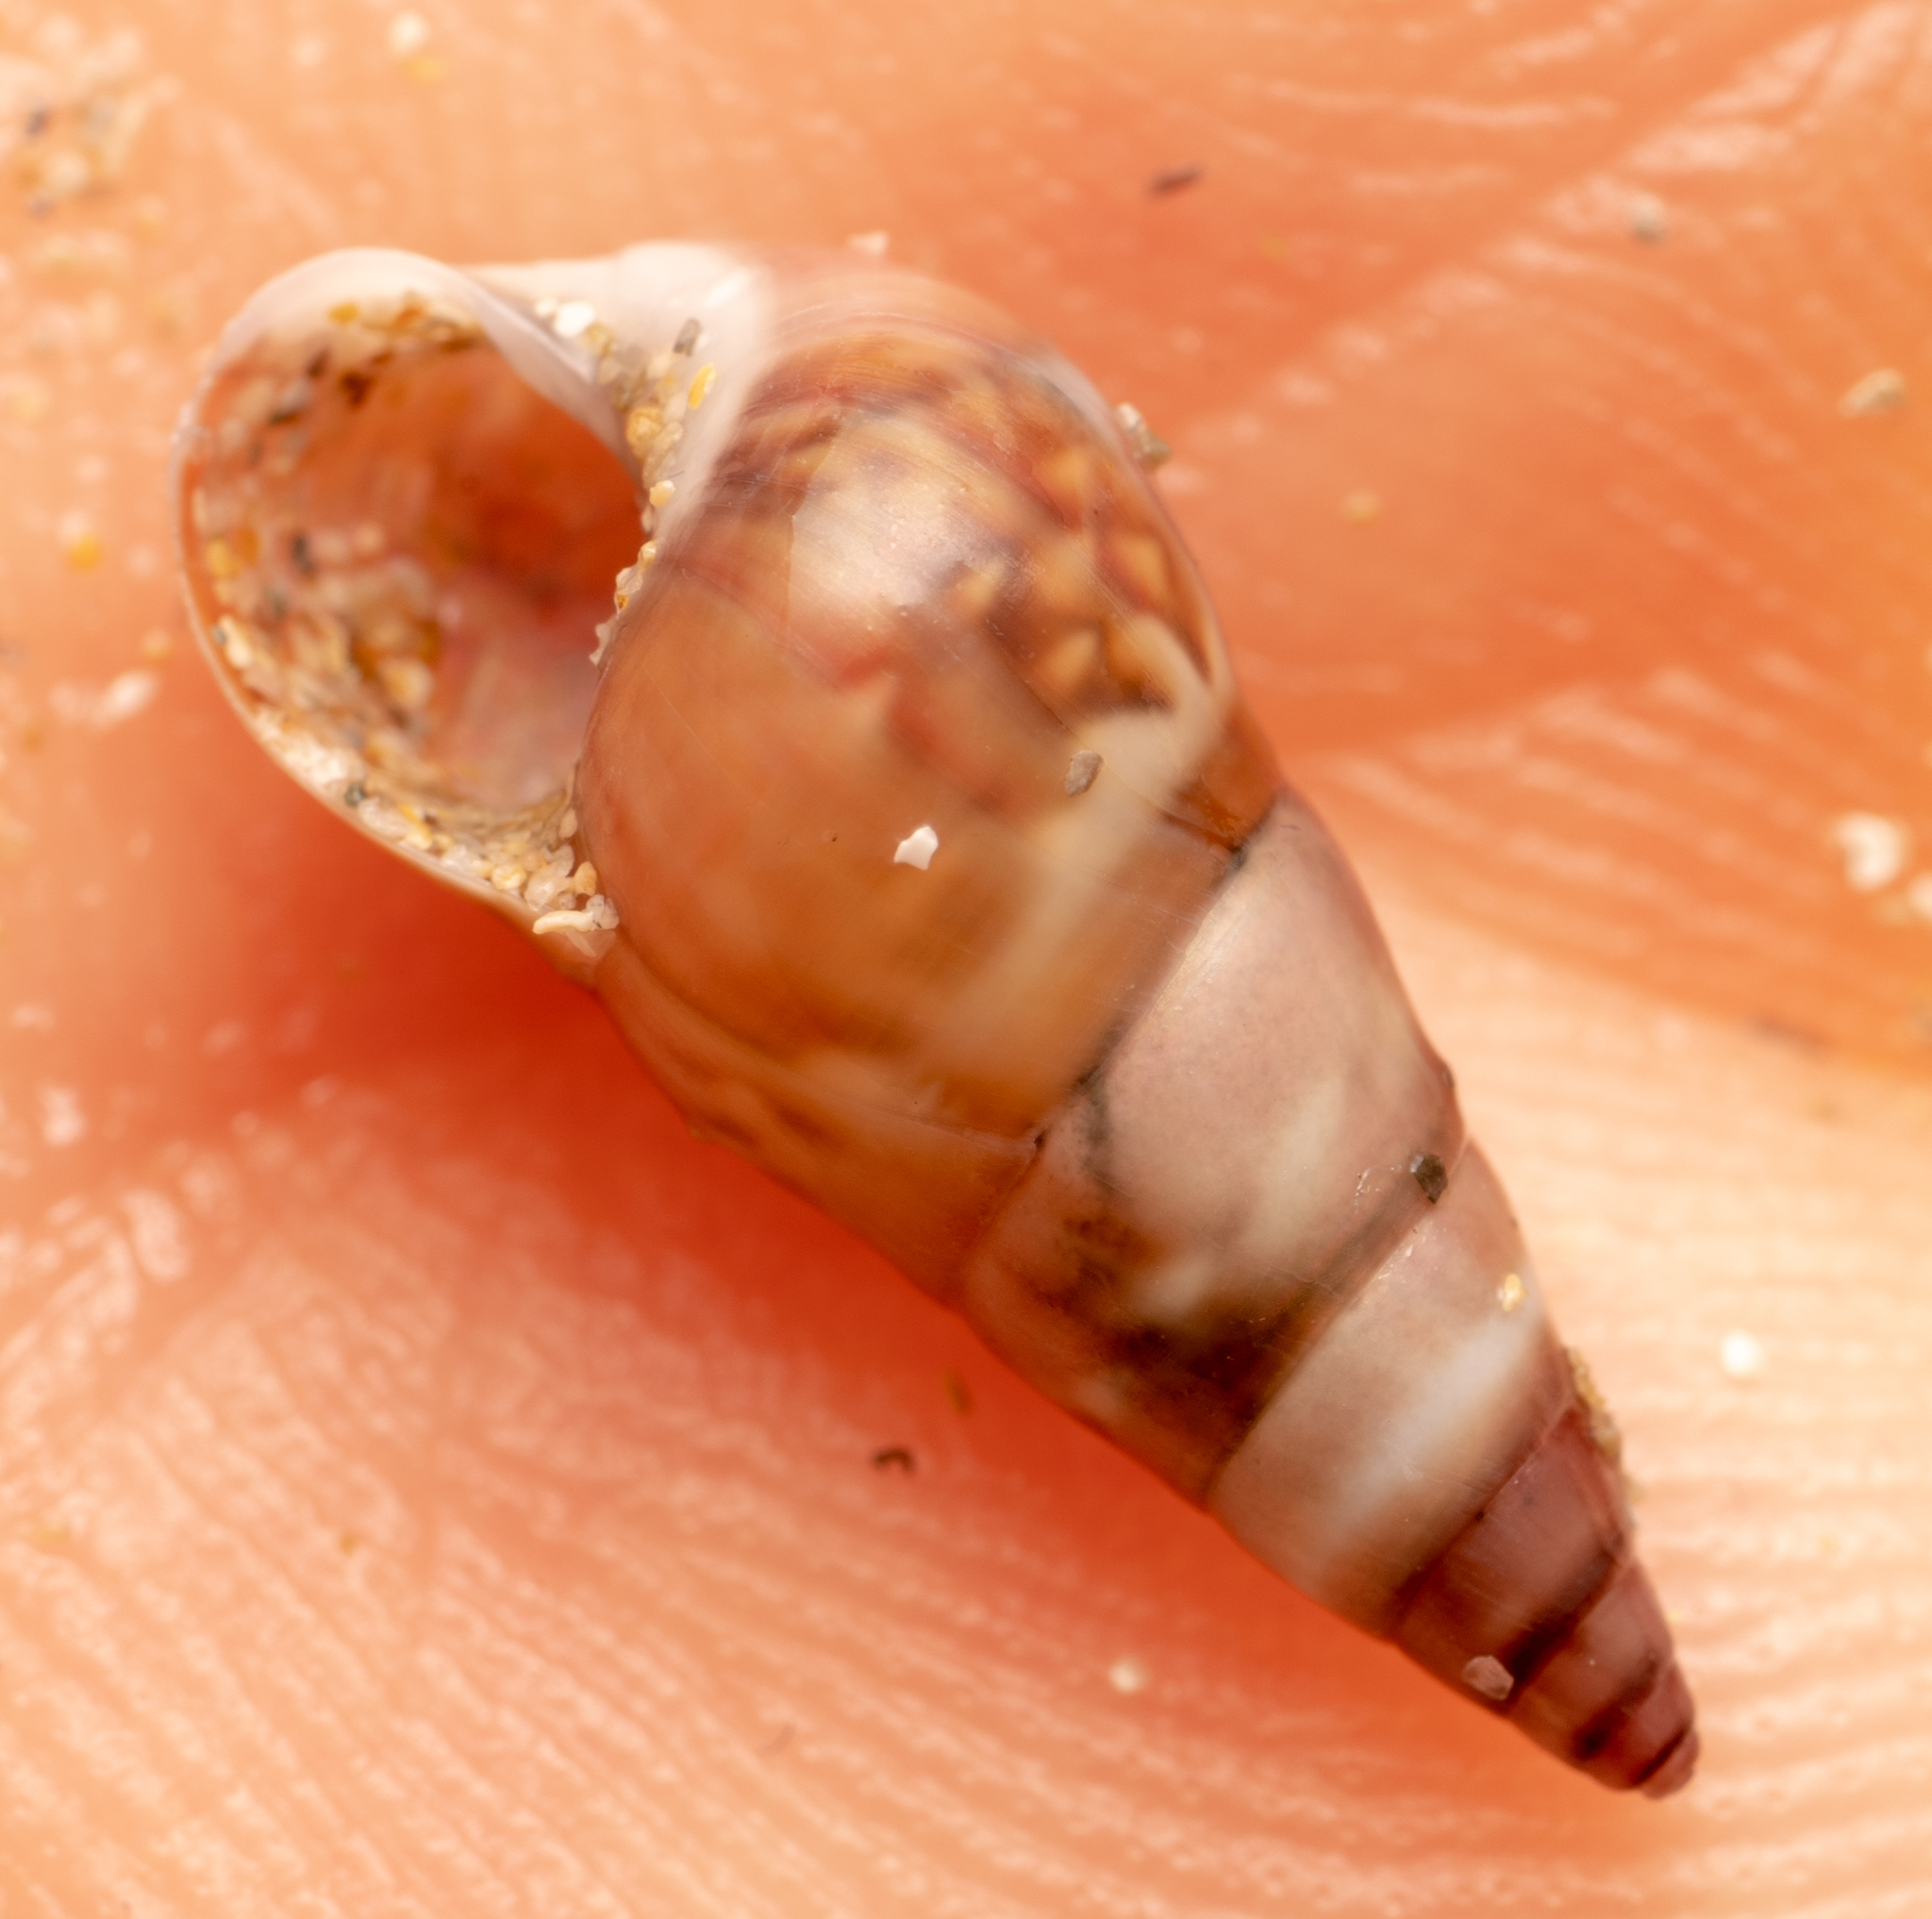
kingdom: Animalia
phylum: Mollusca
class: Gastropoda
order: Trochida
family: Trochidae
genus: Bankivia
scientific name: Bankivia fasciata
